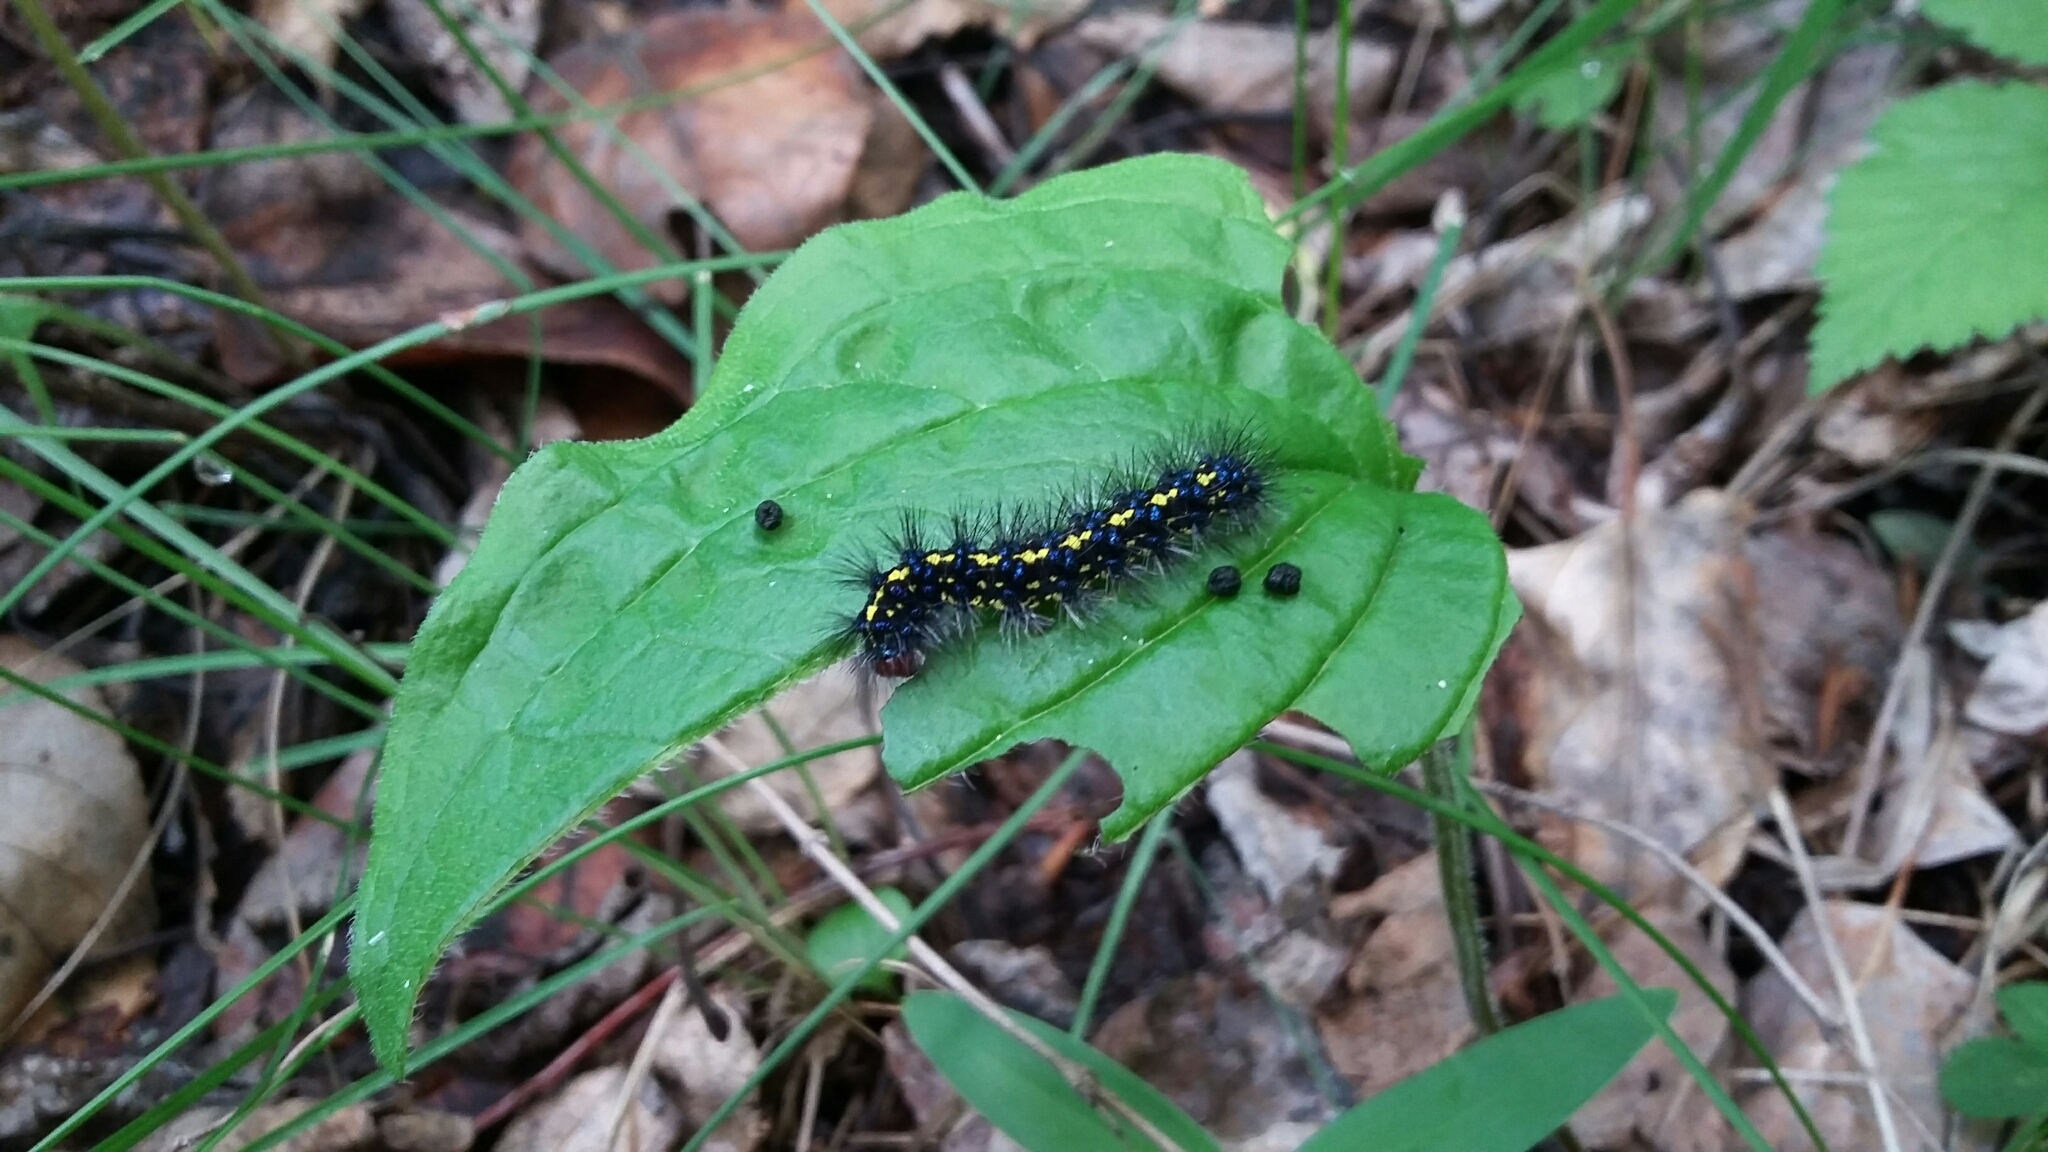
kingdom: Animalia
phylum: Arthropoda
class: Insecta
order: Lepidoptera
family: Erebidae
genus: Gnophaela
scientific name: Gnophaela vermiculata
